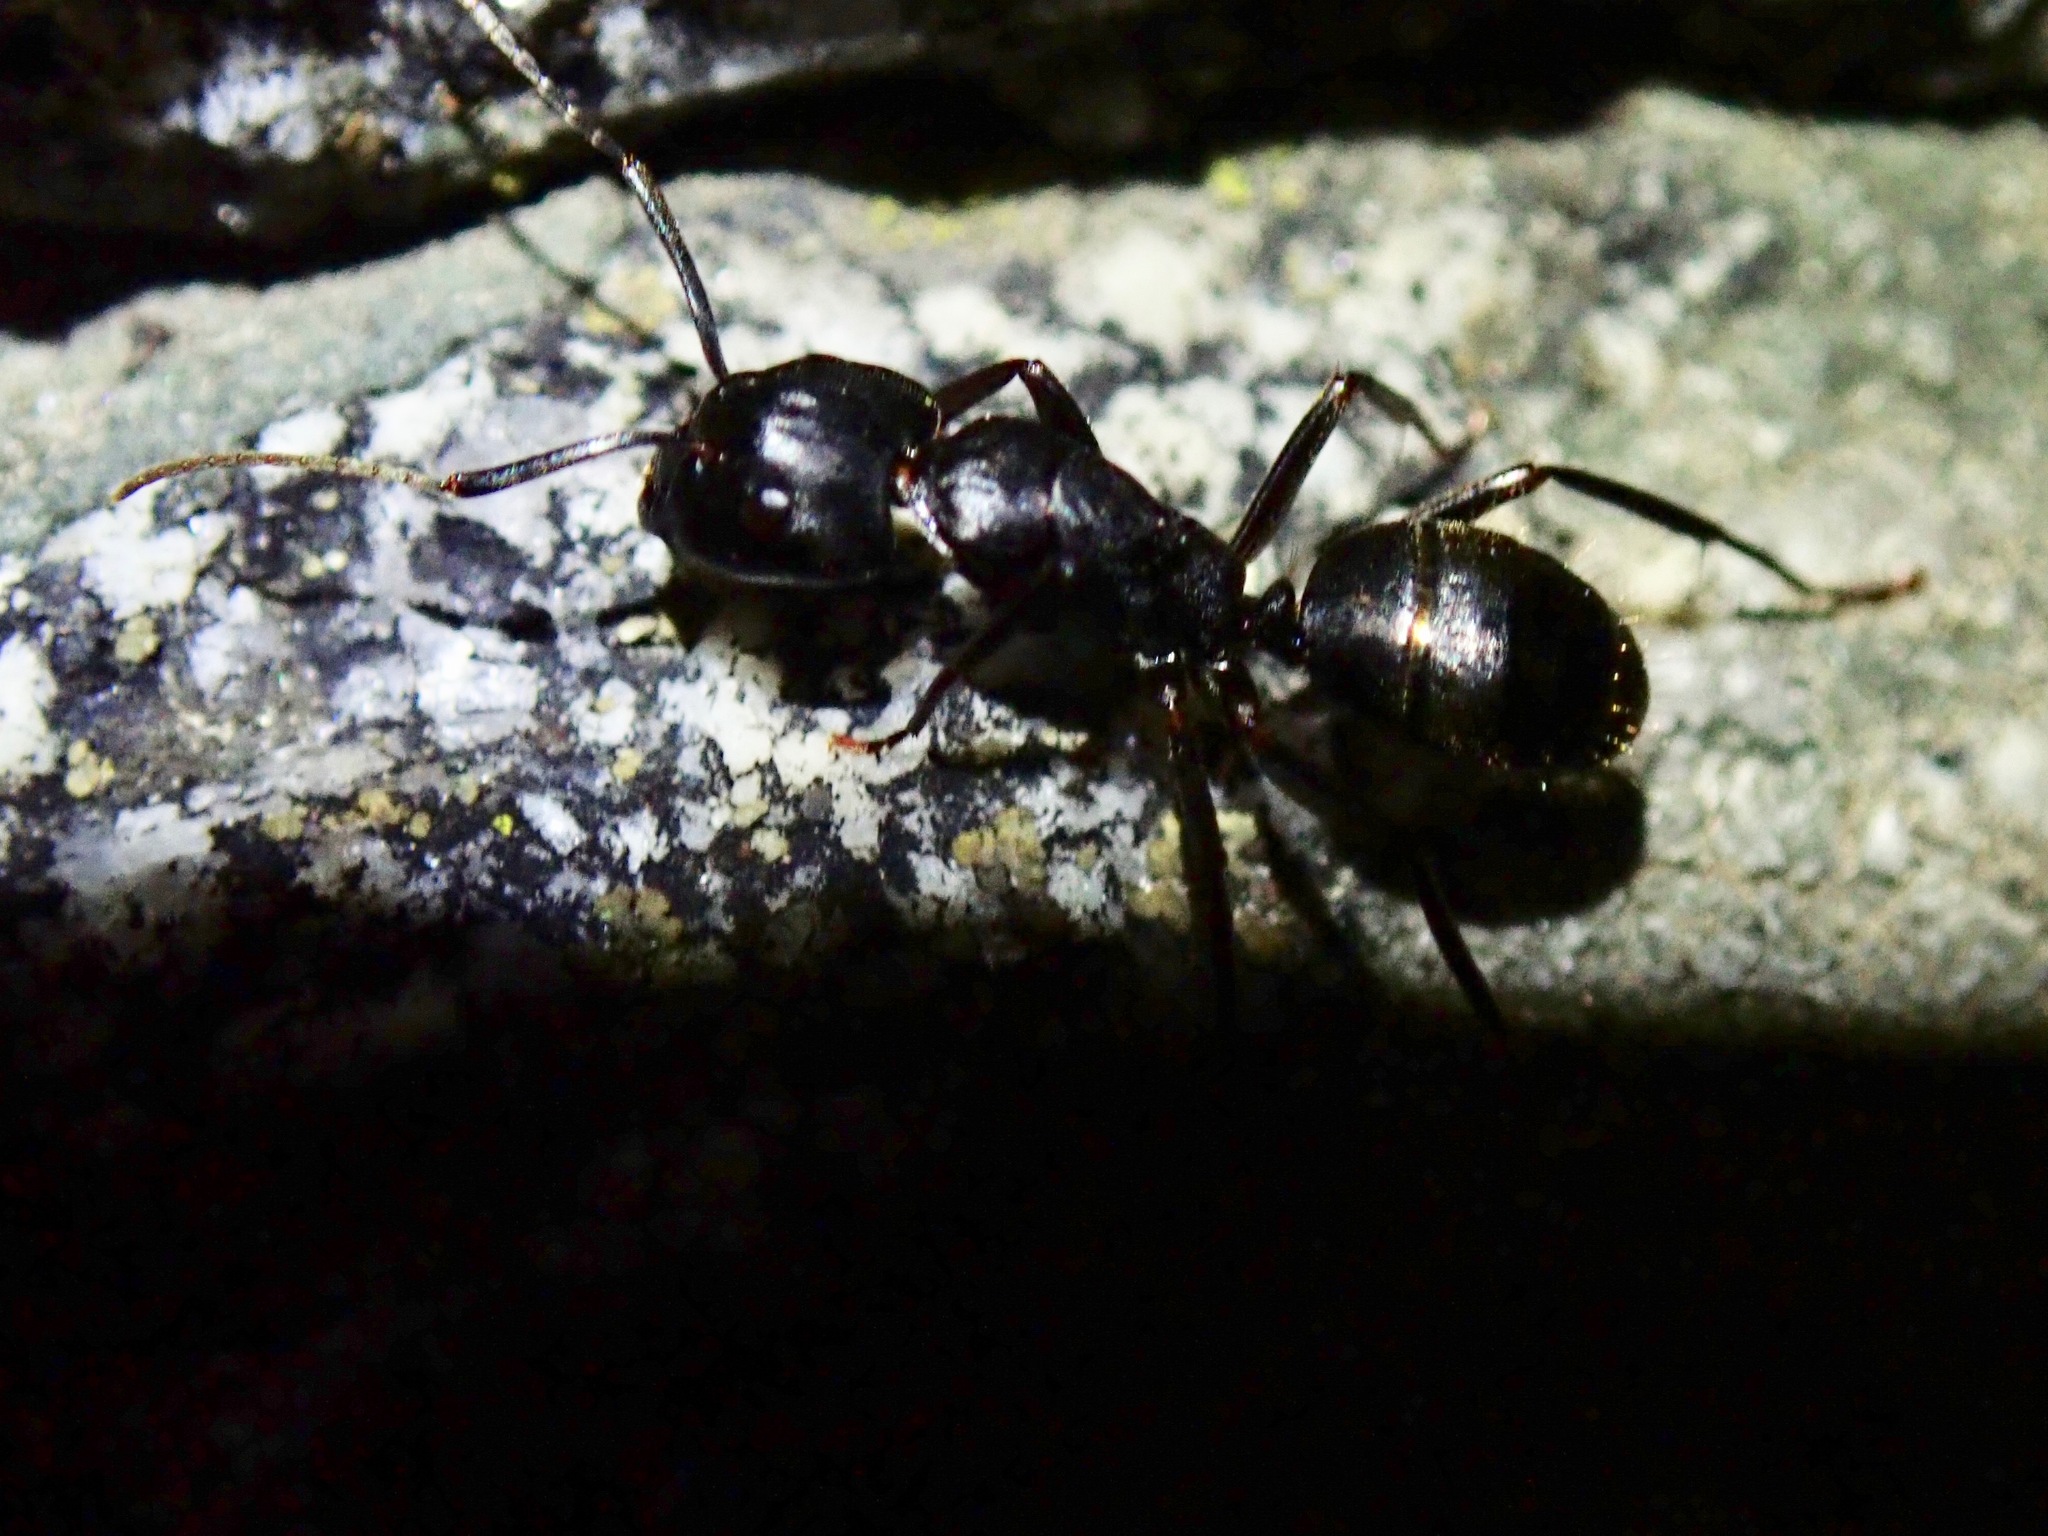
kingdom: Animalia
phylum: Arthropoda
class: Insecta
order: Hymenoptera
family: Formicidae
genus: Camponotus
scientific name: Camponotus vicinus
